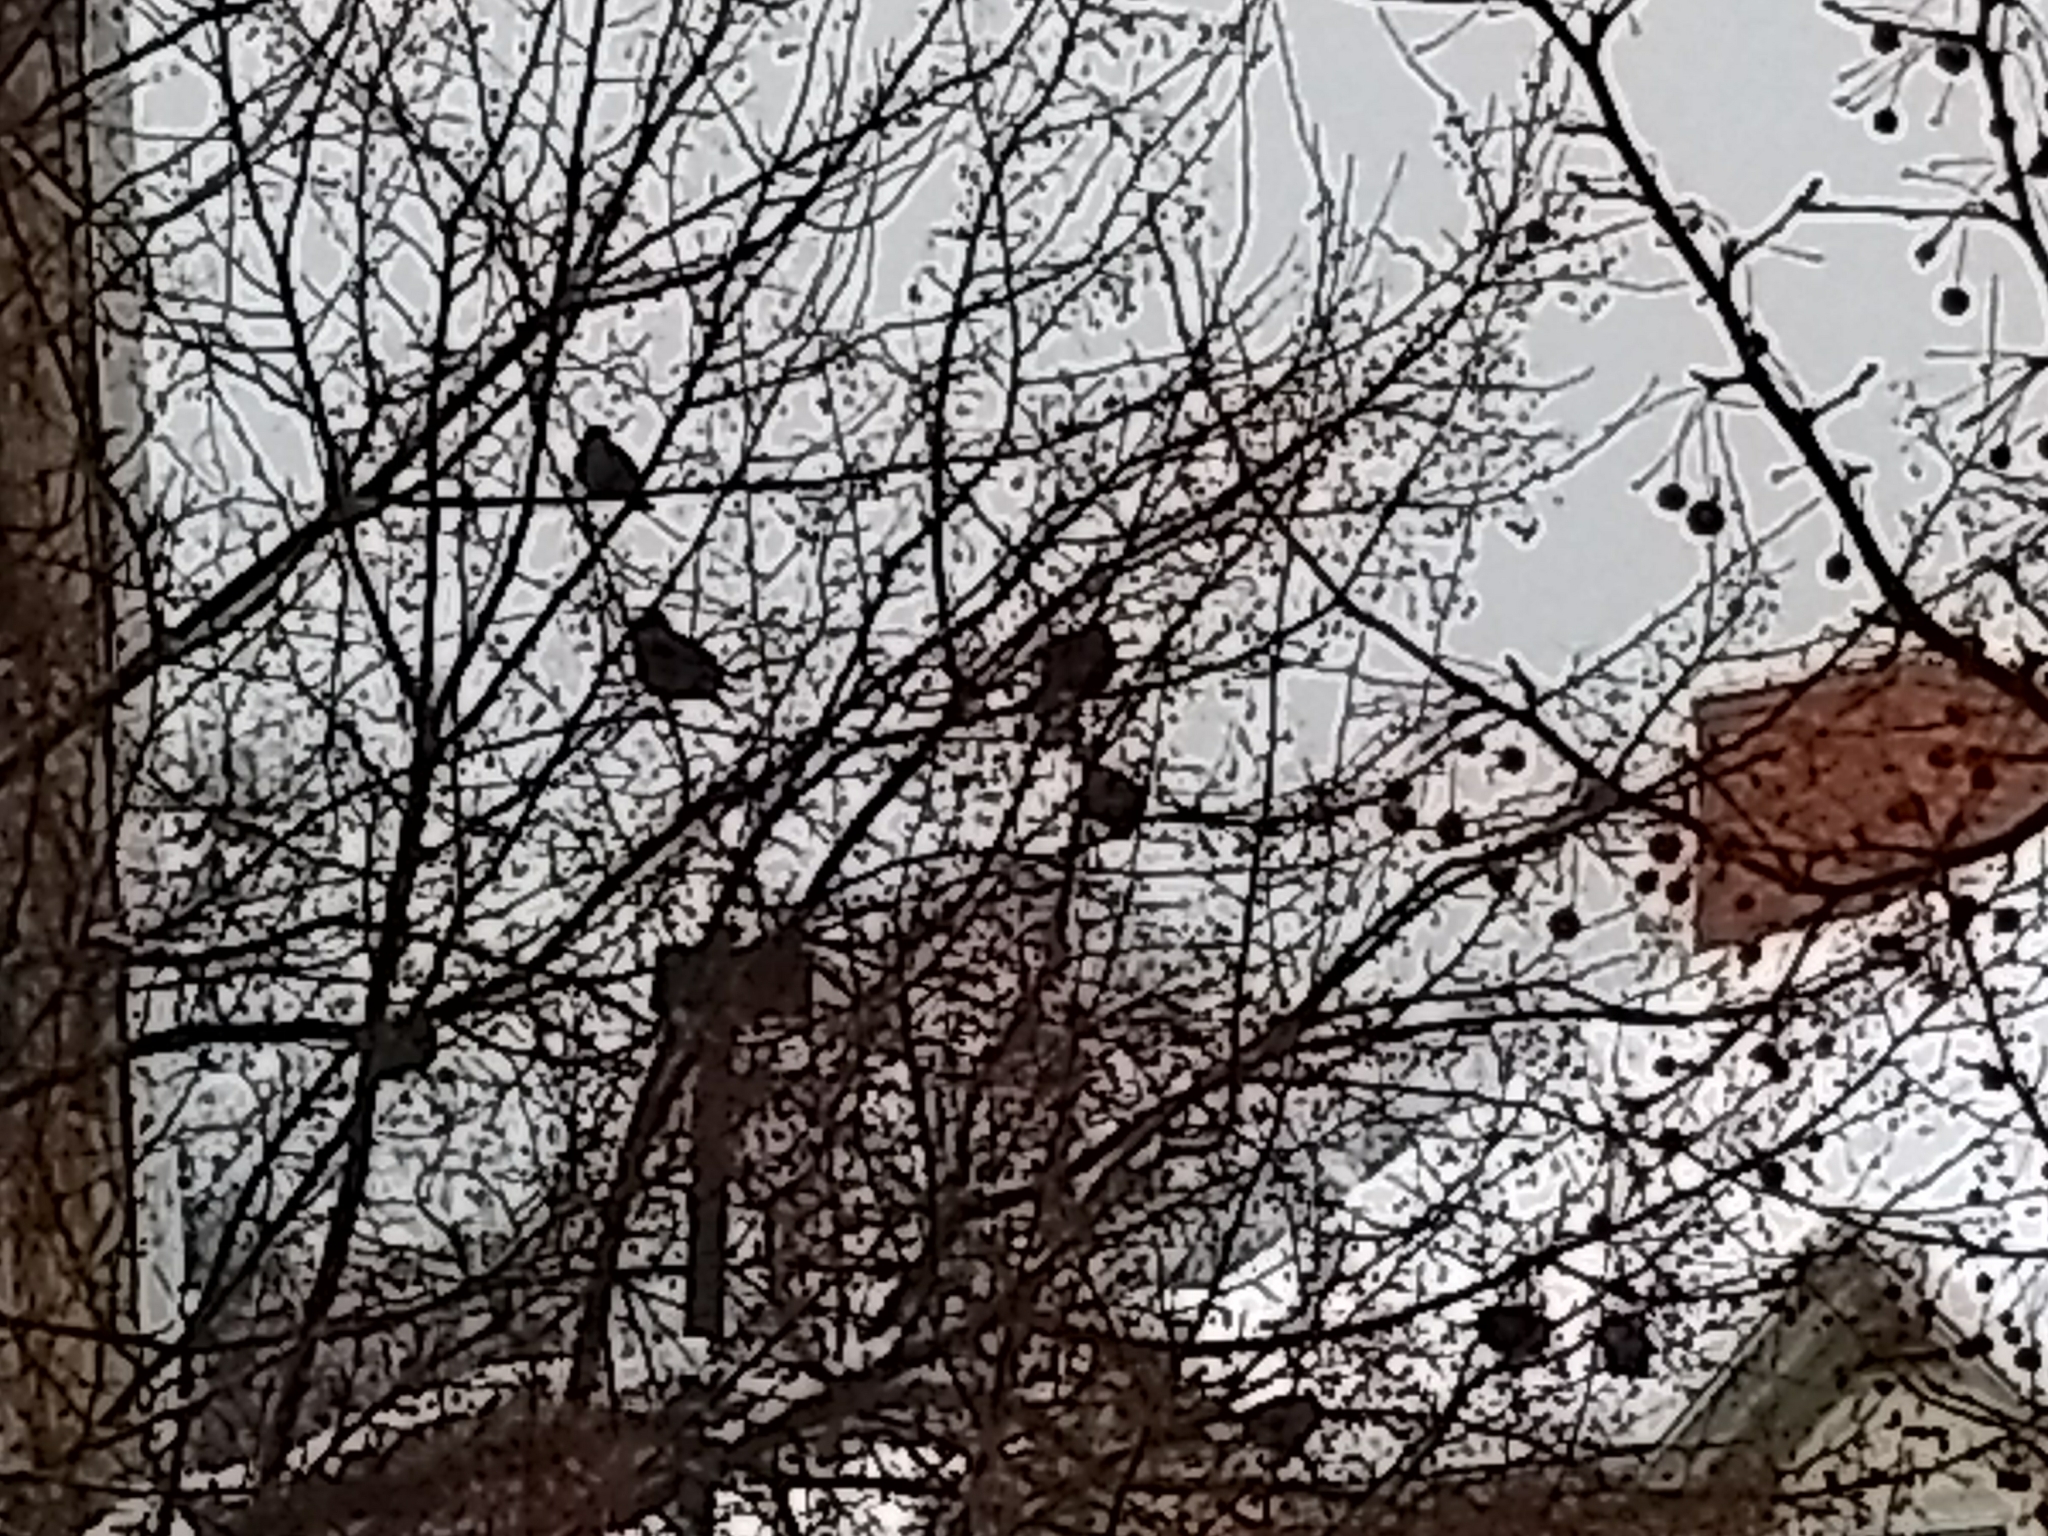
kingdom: Animalia
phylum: Chordata
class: Aves
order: Passeriformes
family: Sturnidae
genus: Sturnus
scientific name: Sturnus vulgaris
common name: Common starling
